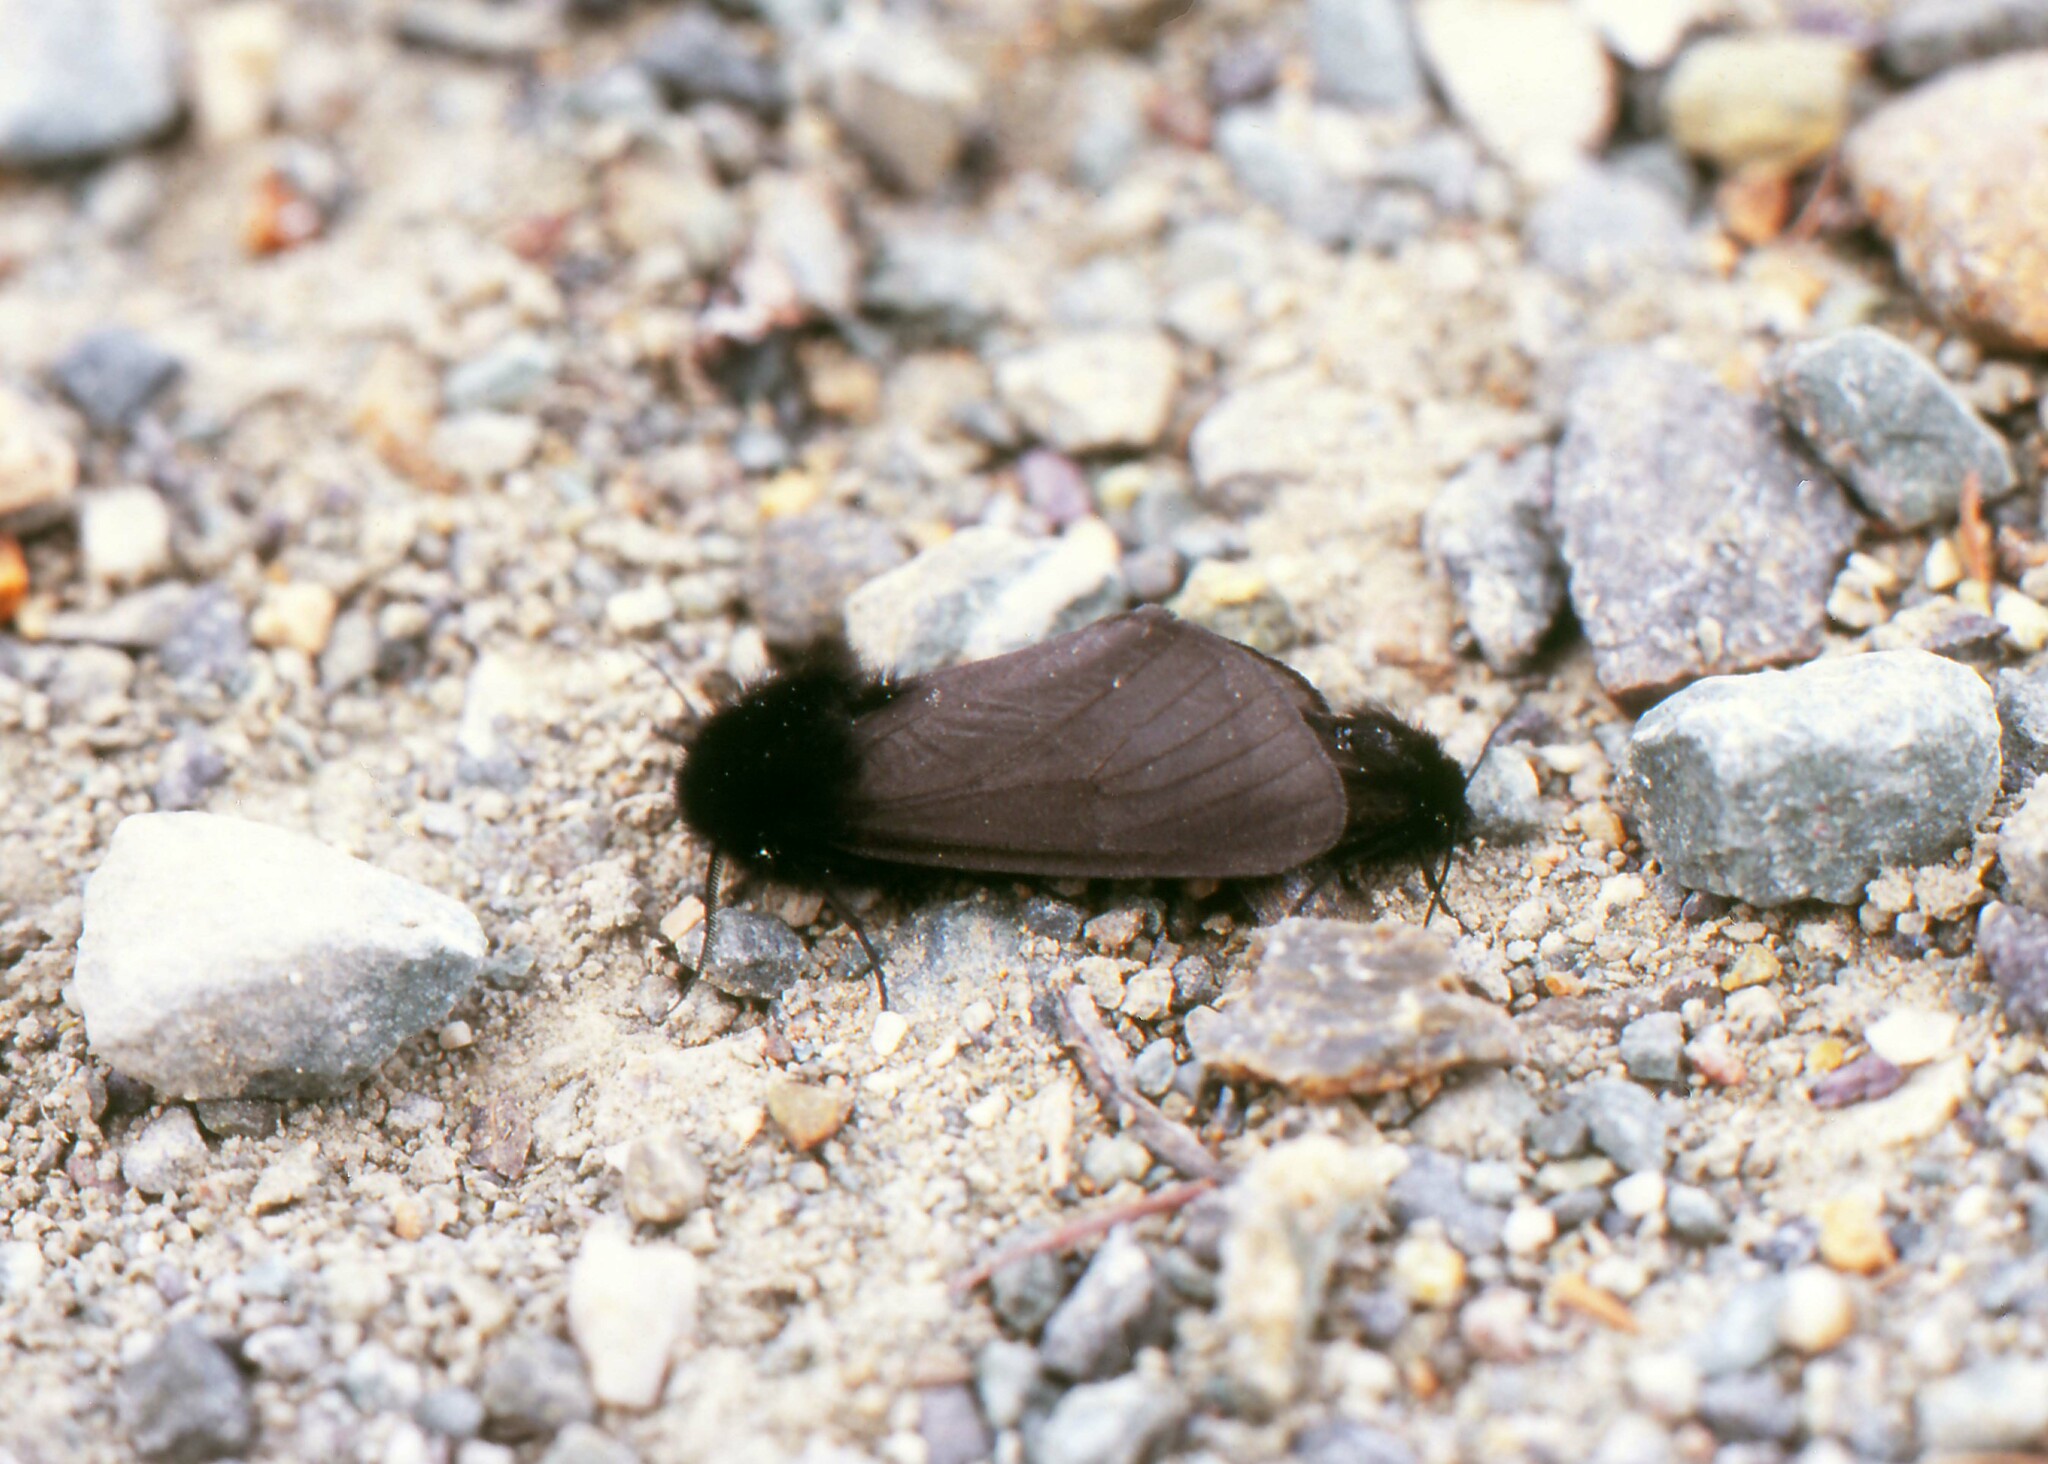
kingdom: Animalia
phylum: Arthropoda
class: Insecta
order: Lepidoptera
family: Erebidae
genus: Epatolmis
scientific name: Epatolmis luctifera
